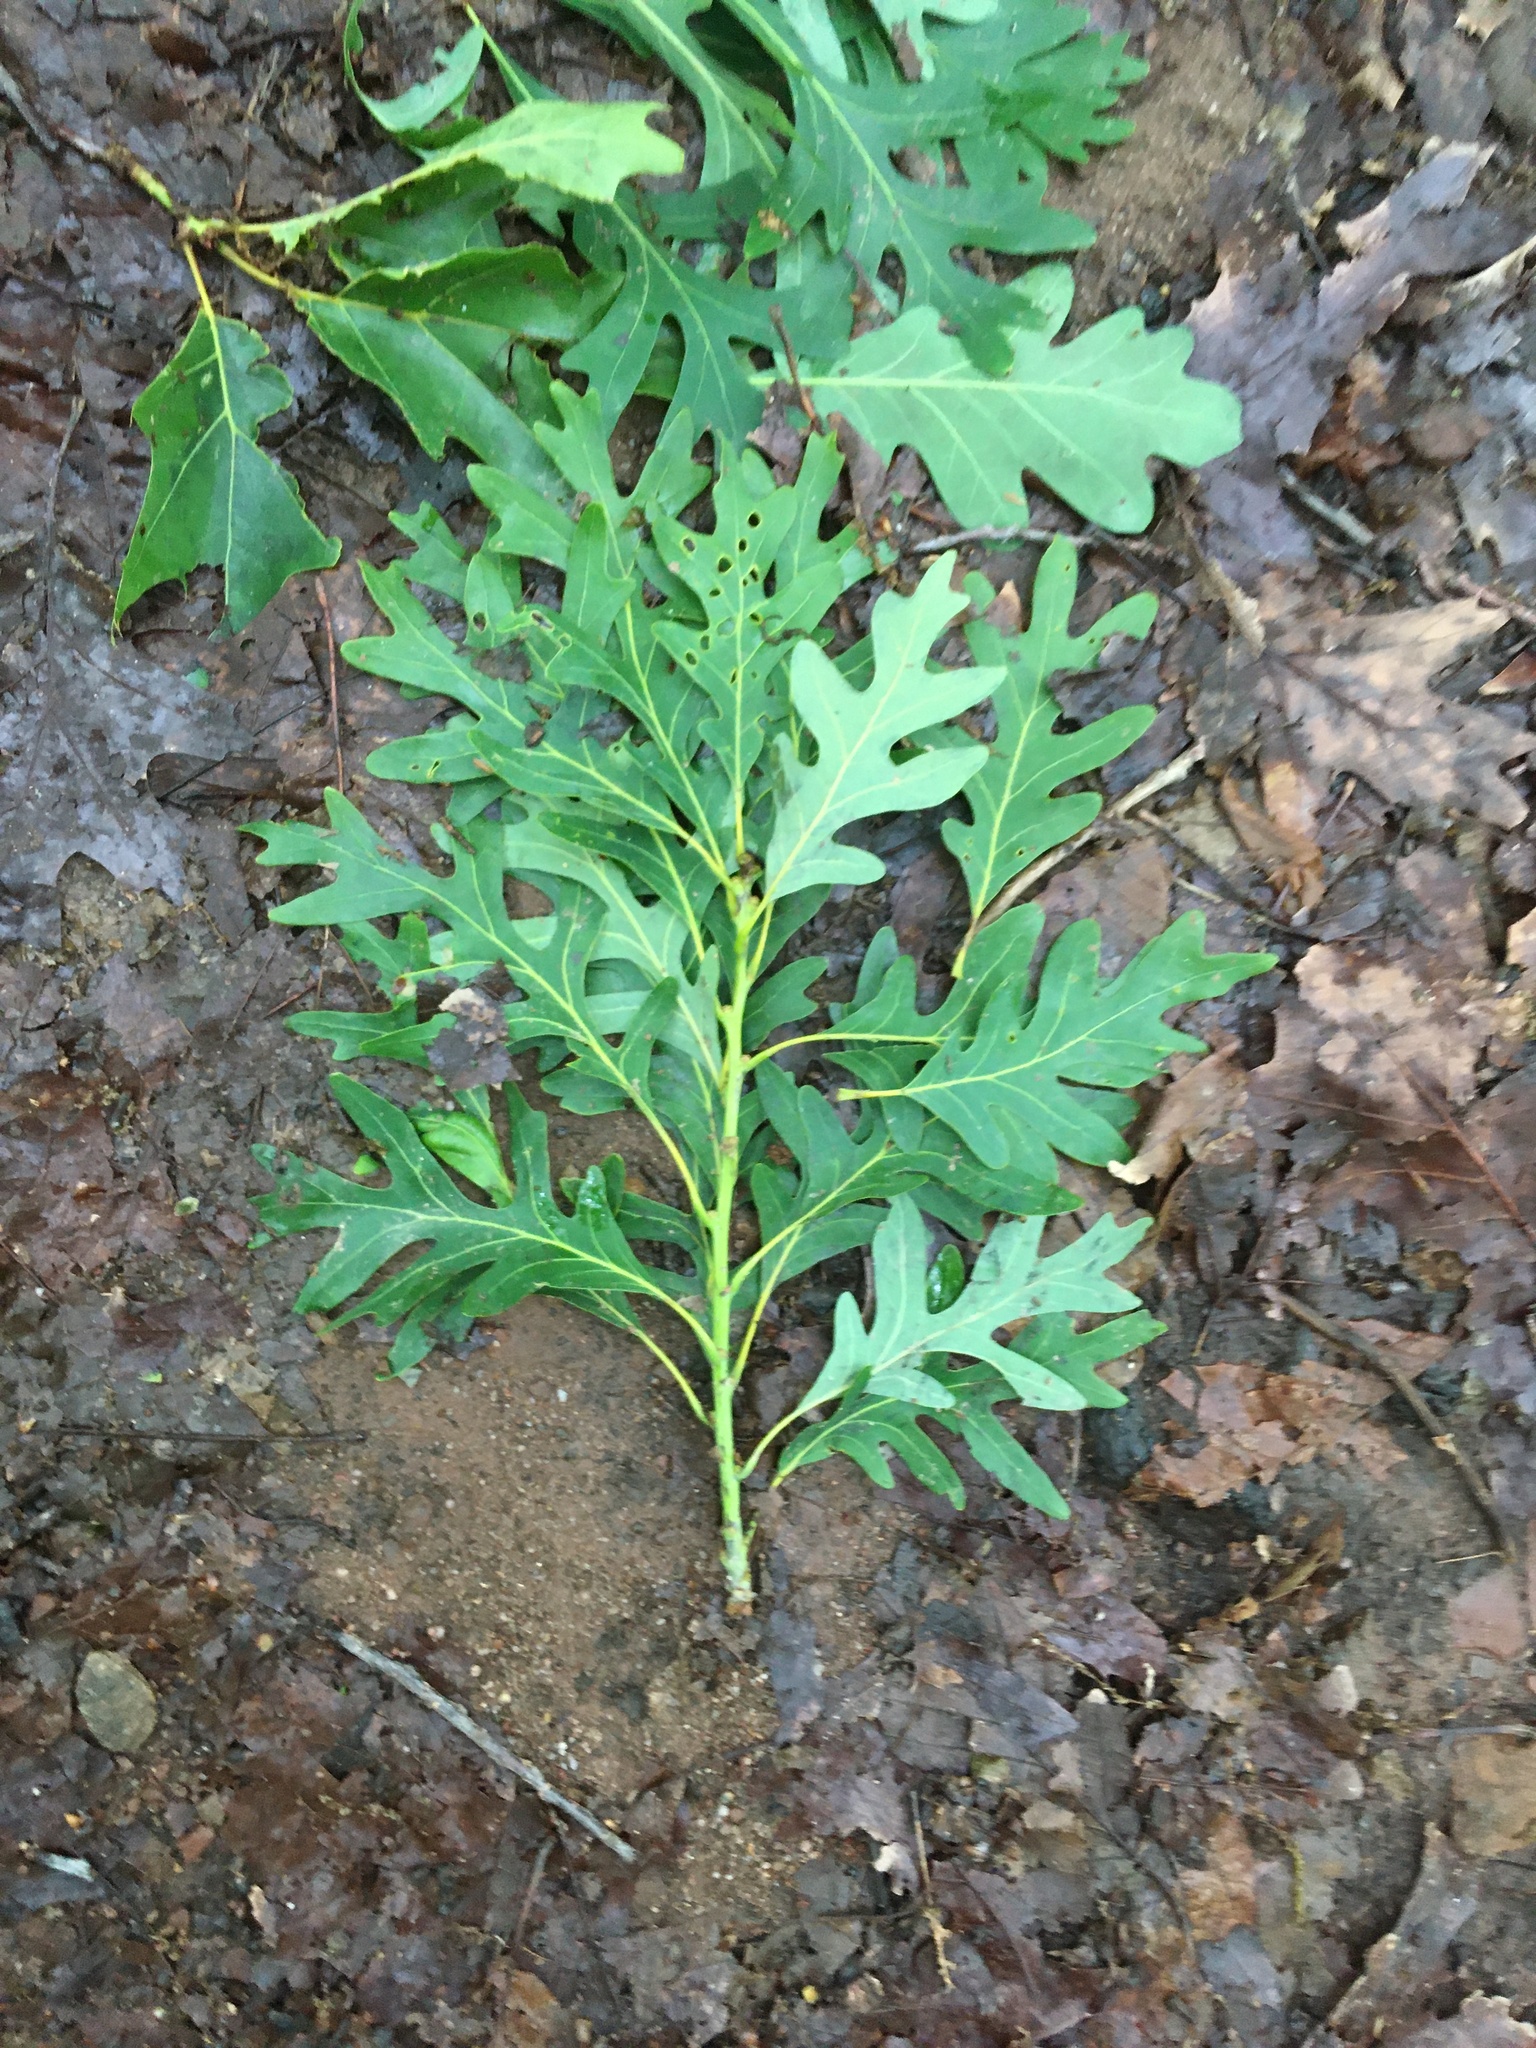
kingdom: Plantae
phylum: Tracheophyta
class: Magnoliopsida
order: Fagales
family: Fagaceae
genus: Quercus
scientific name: Quercus alba
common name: White oak
